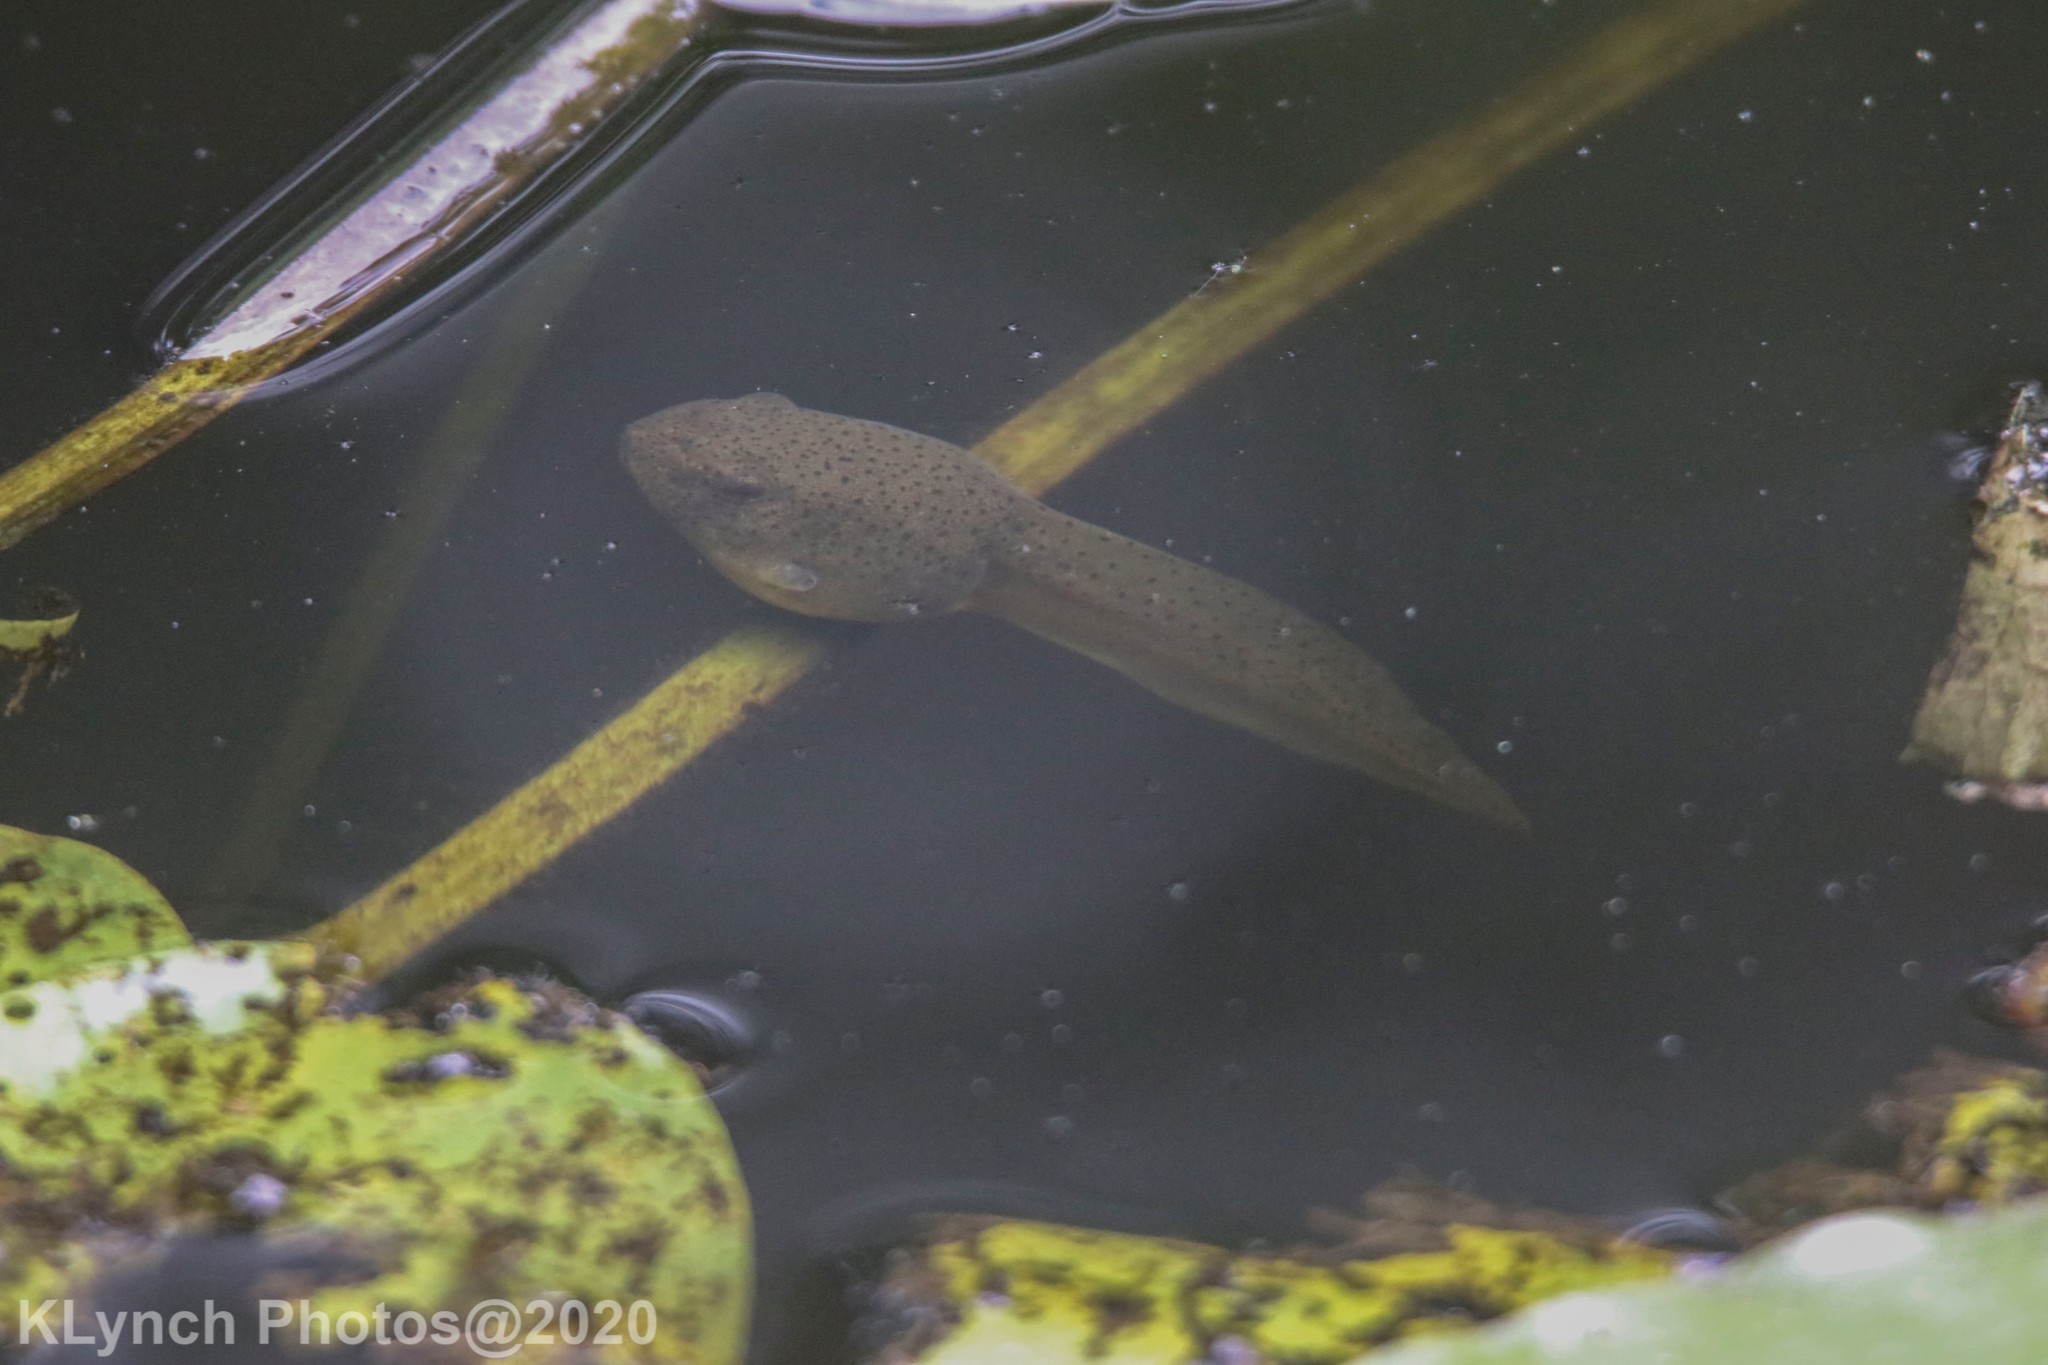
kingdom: Animalia
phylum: Chordata
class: Amphibia
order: Anura
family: Ranidae
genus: Lithobates
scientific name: Lithobates catesbeianus
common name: American bullfrog
